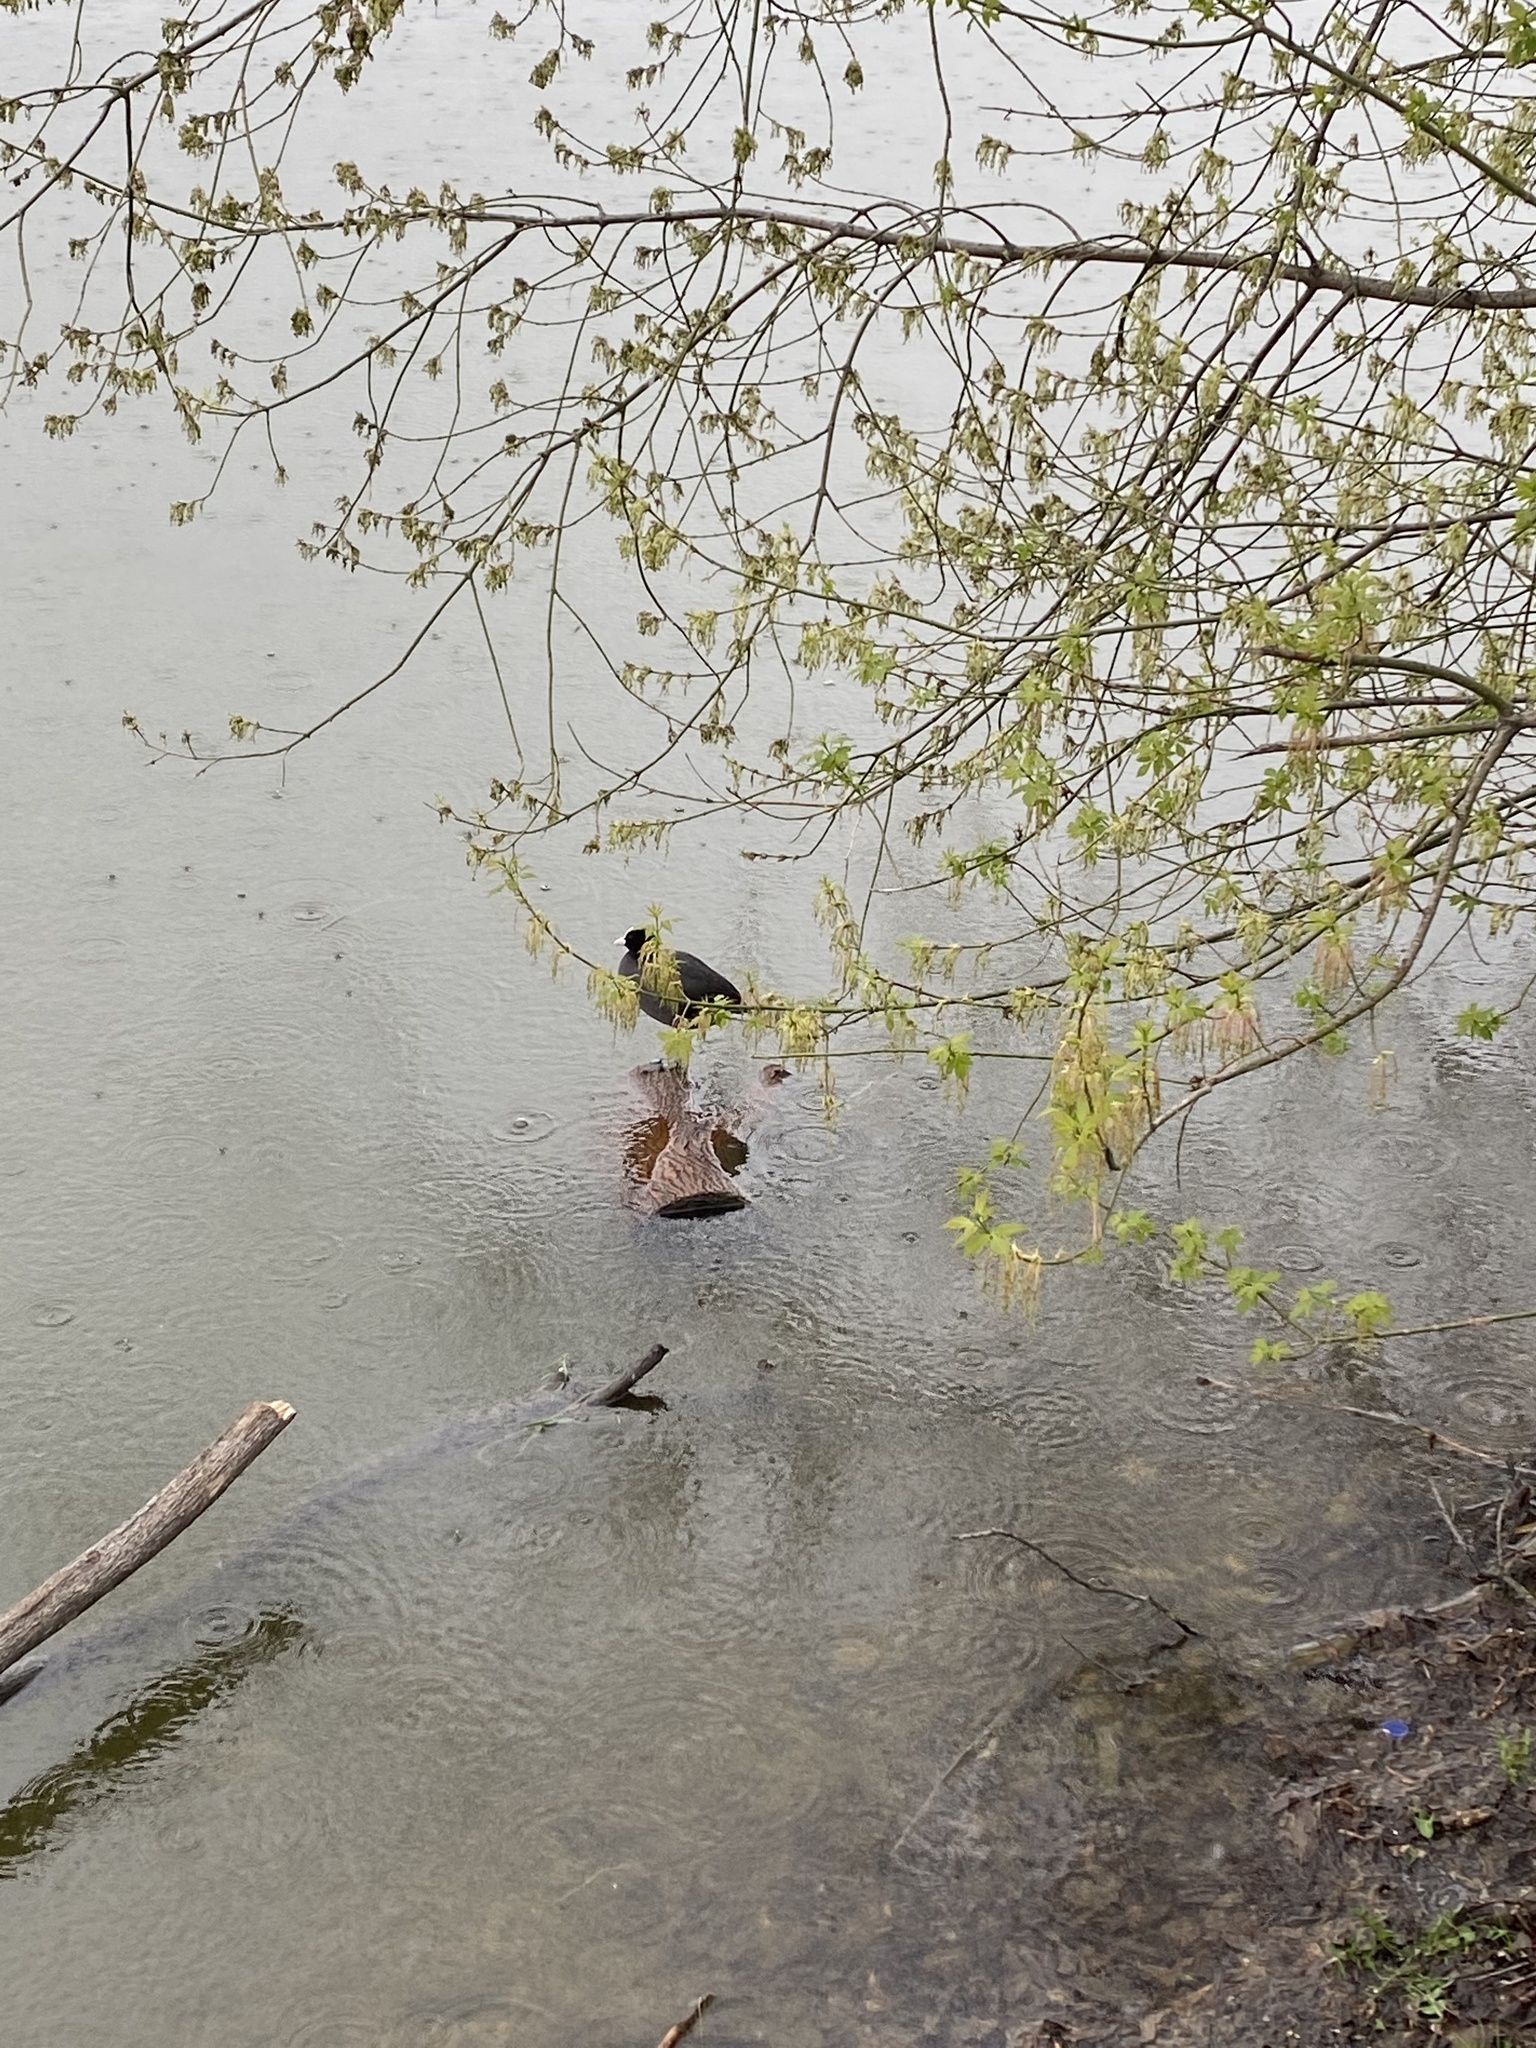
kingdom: Animalia
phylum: Chordata
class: Aves
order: Gruiformes
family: Rallidae
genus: Fulica
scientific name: Fulica atra
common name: Eurasian coot
